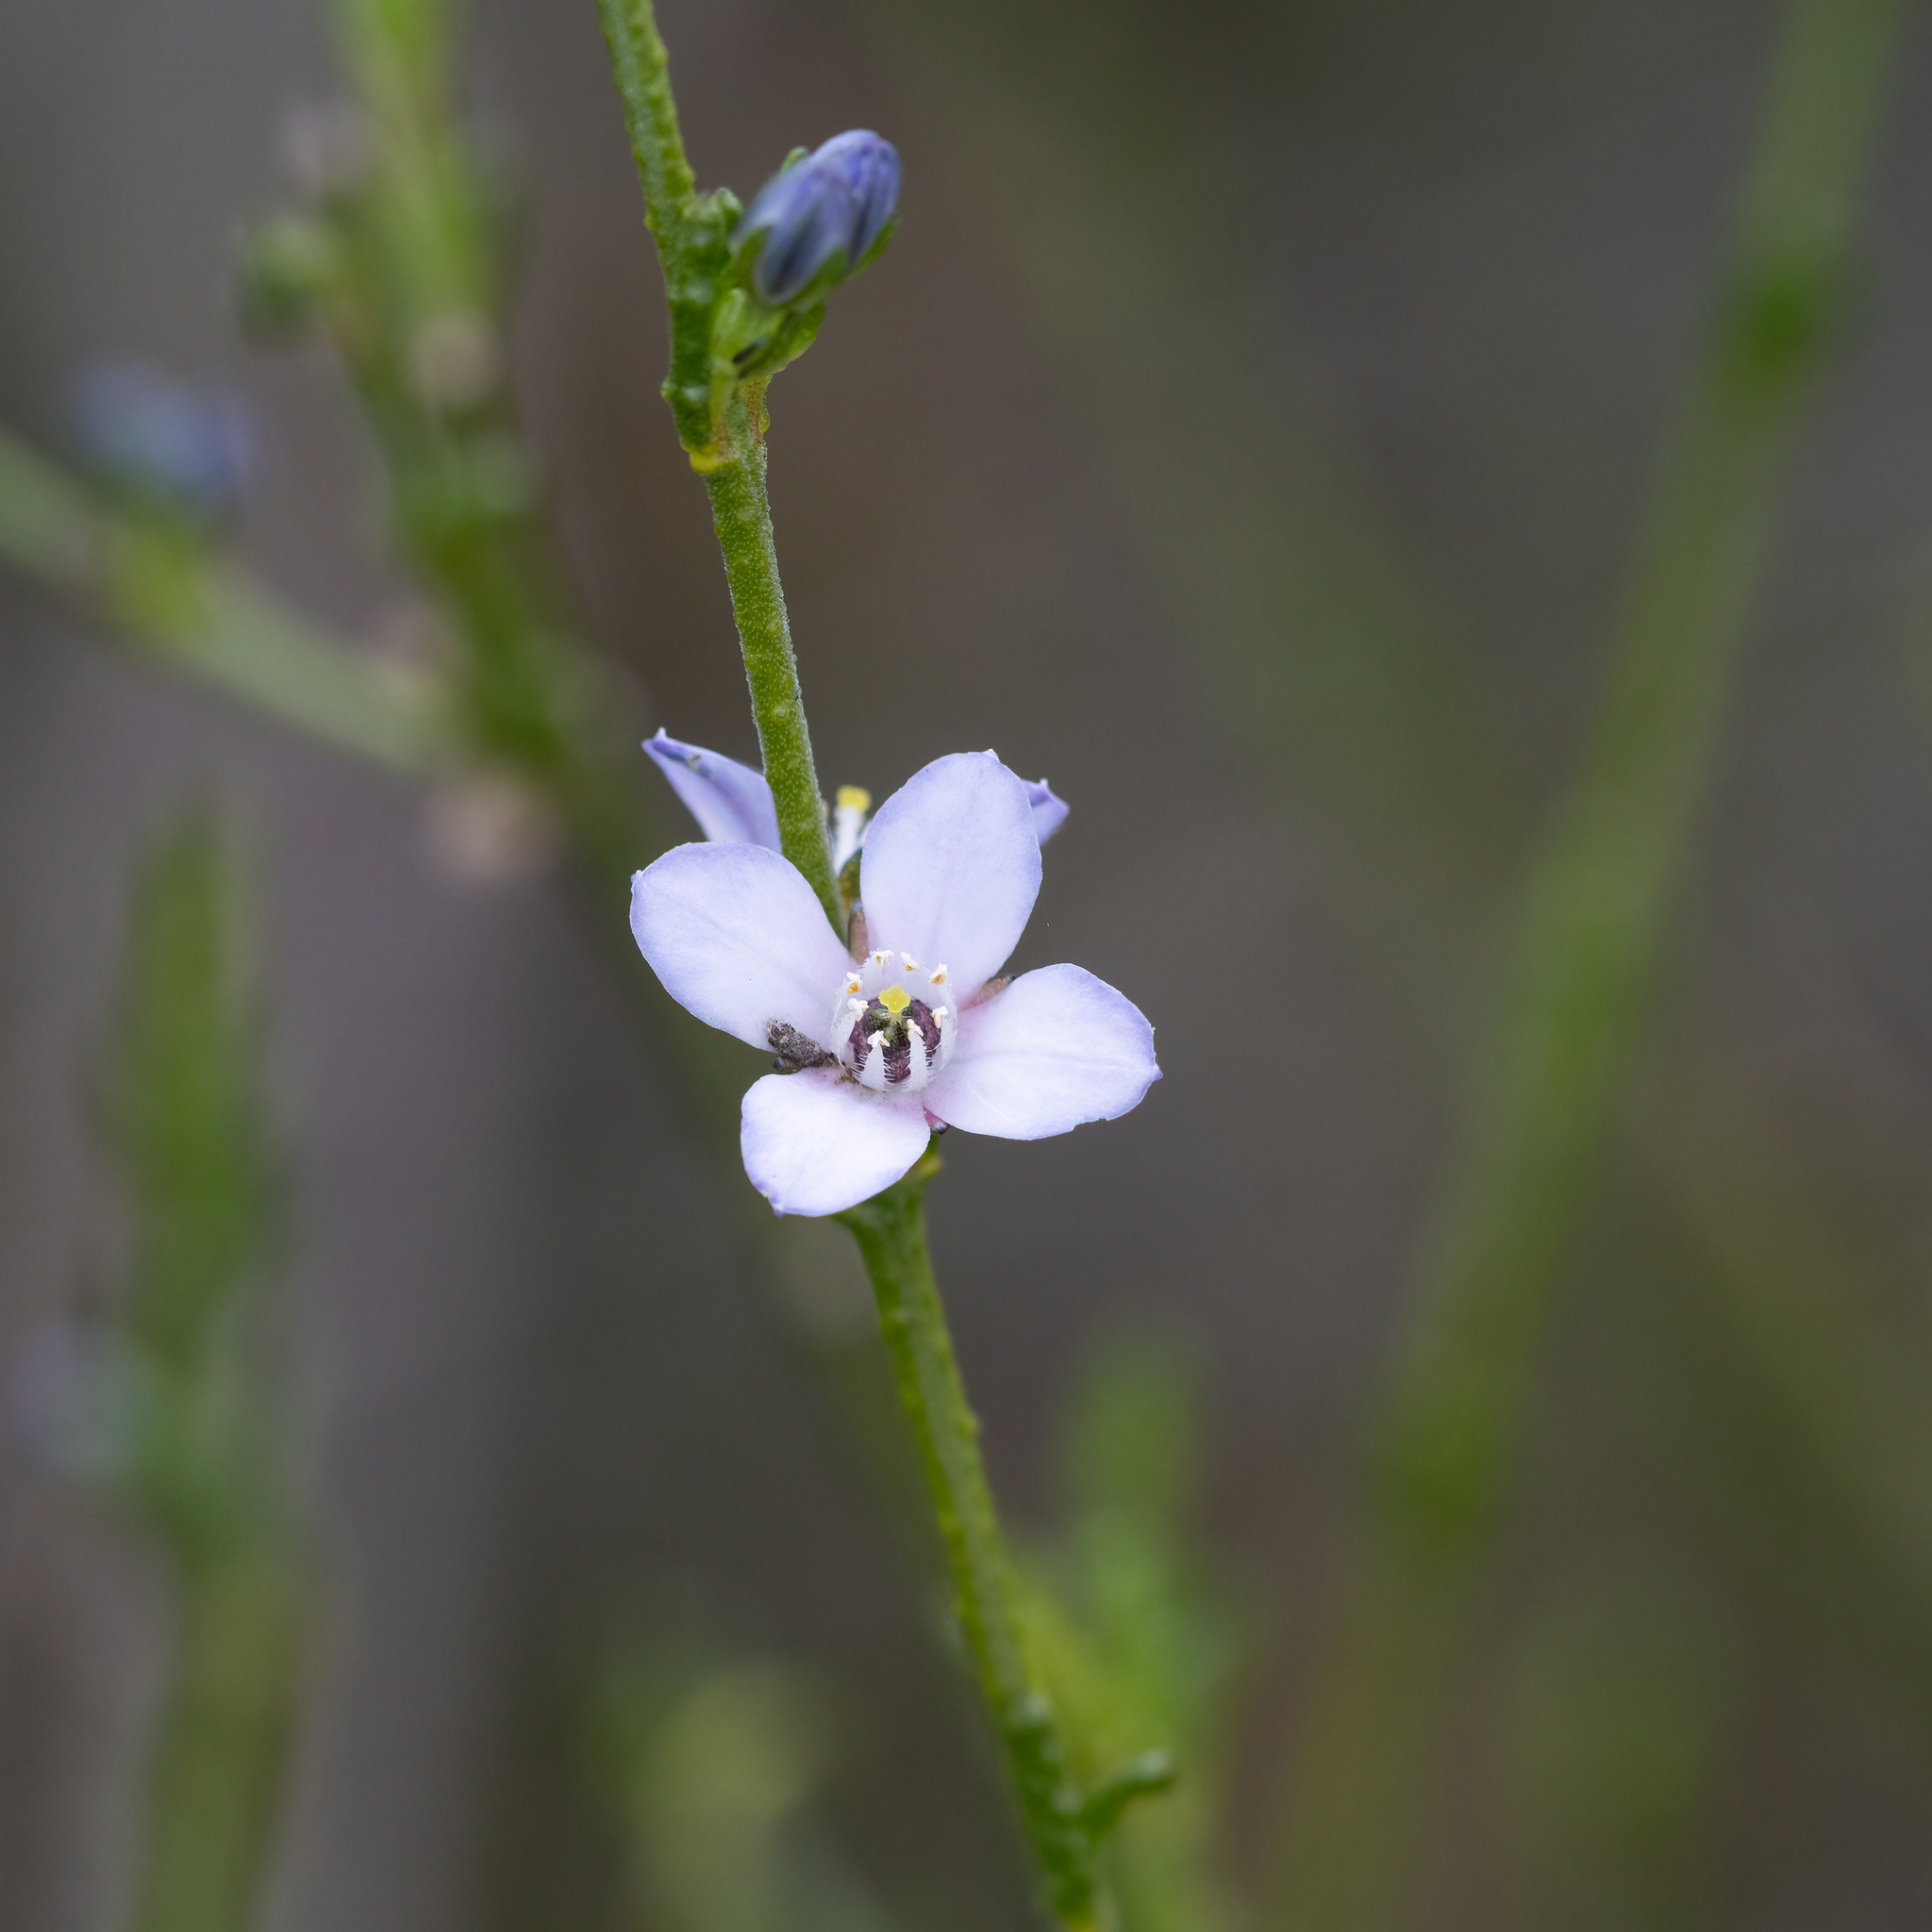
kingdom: Plantae
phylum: Tracheophyta
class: Magnoliopsida
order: Sapindales
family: Rutaceae
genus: Cyanothamnus
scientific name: Cyanothamnus coerulescens
